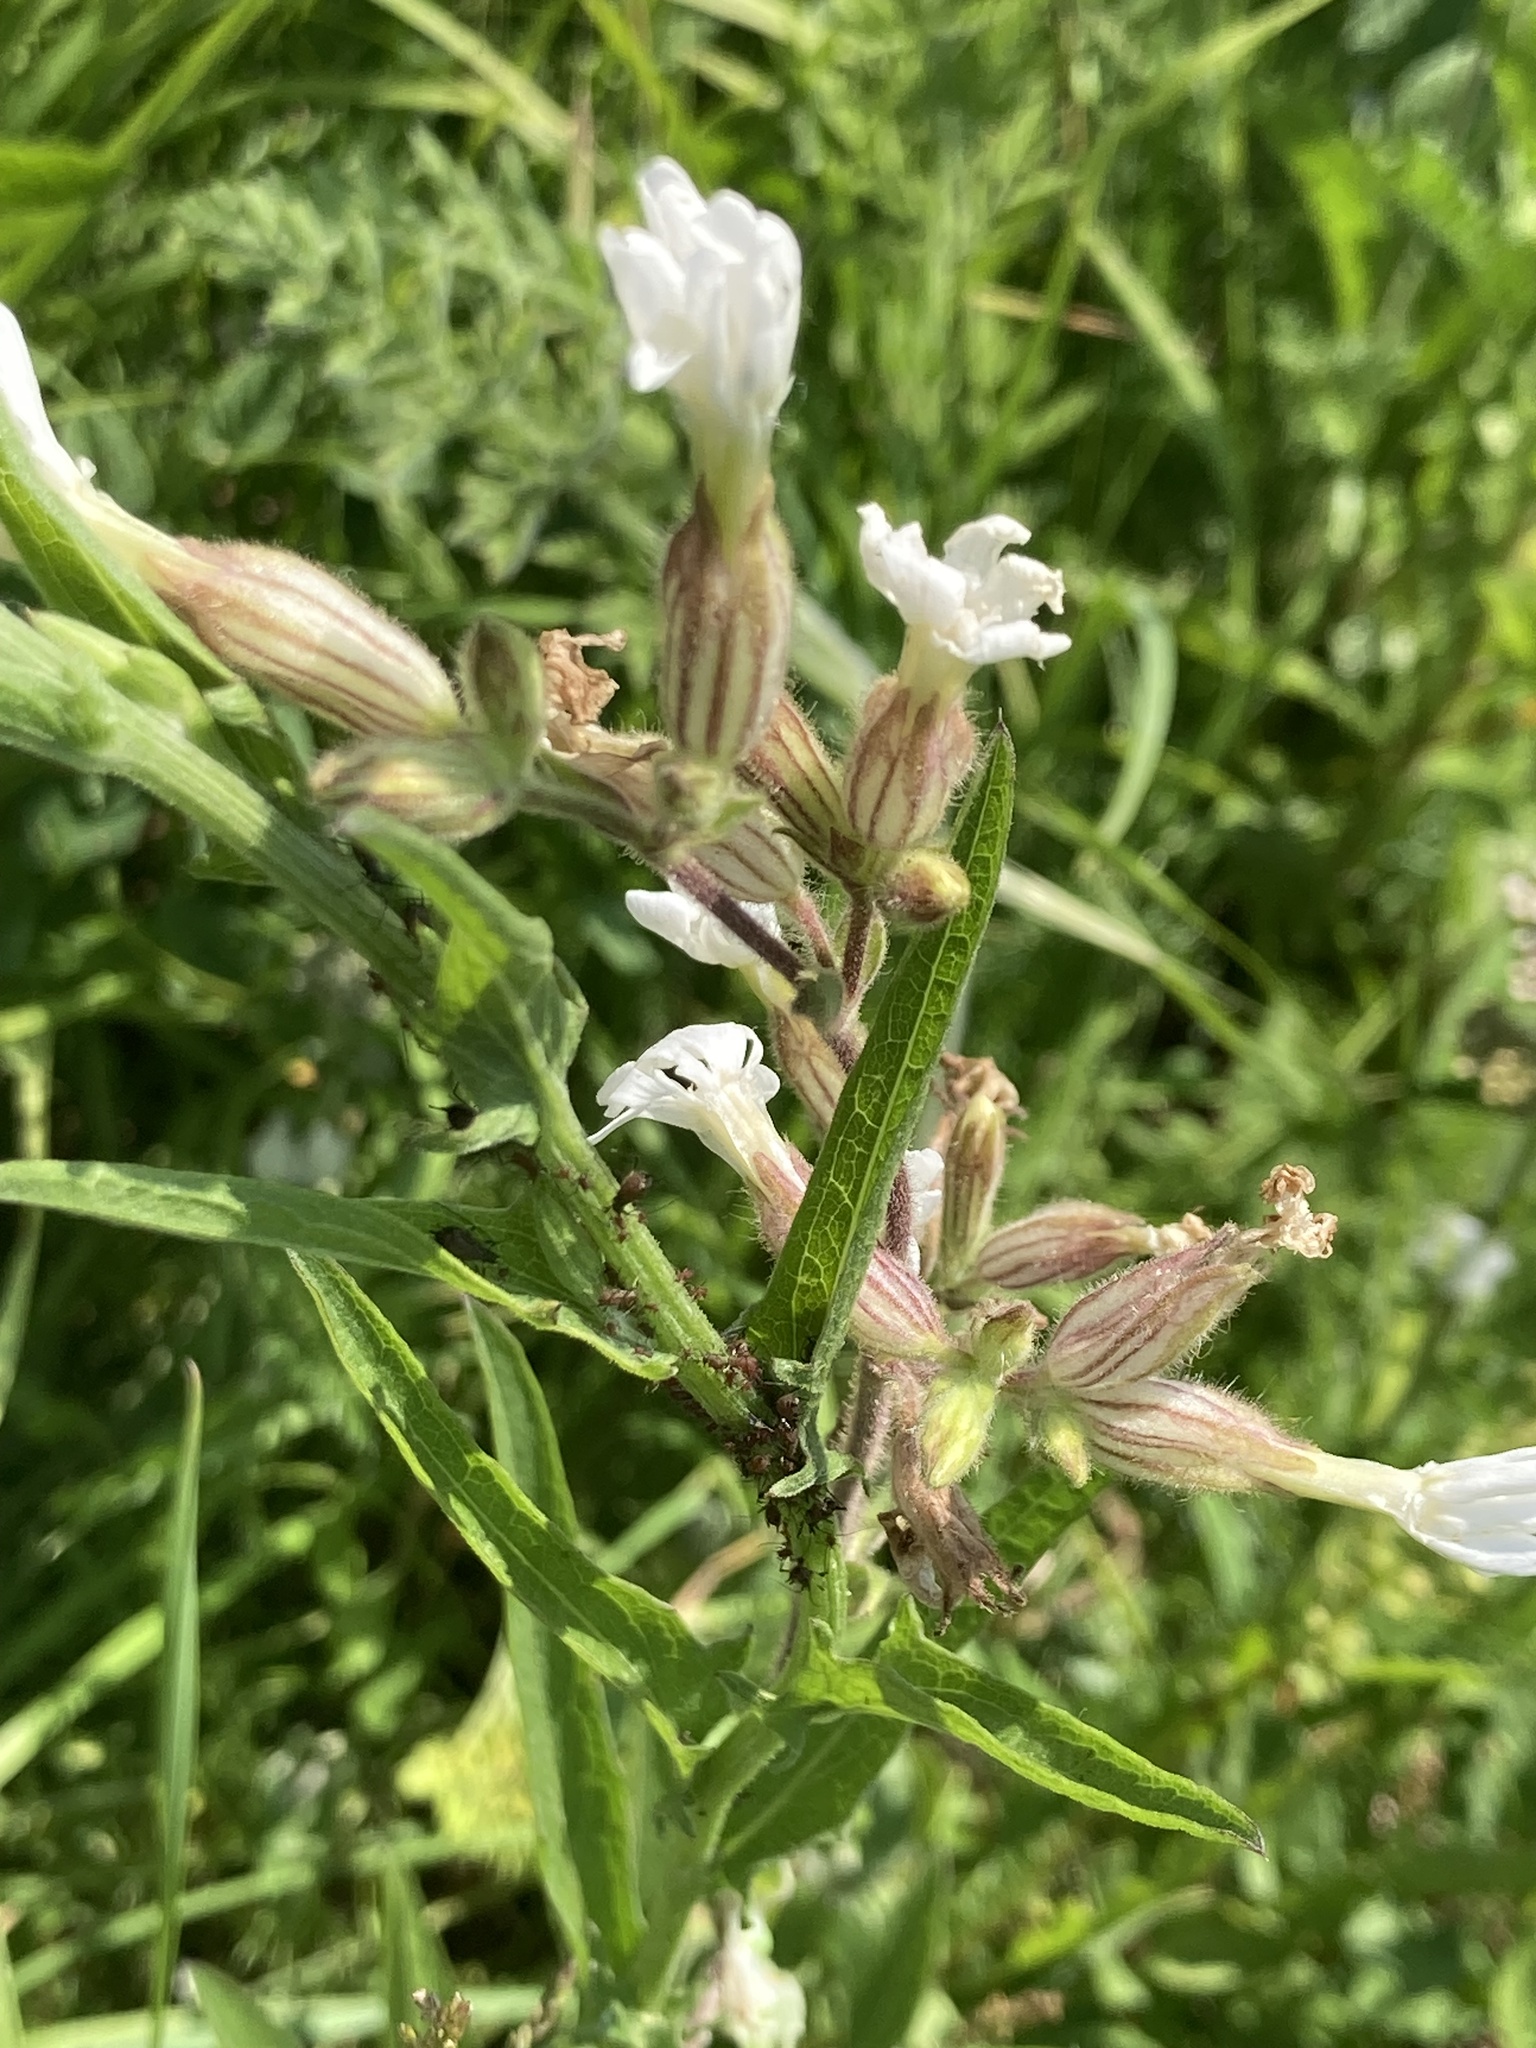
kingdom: Plantae
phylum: Tracheophyta
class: Magnoliopsida
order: Caryophyllales
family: Caryophyllaceae
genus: Silene
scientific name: Silene latifolia
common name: White campion
